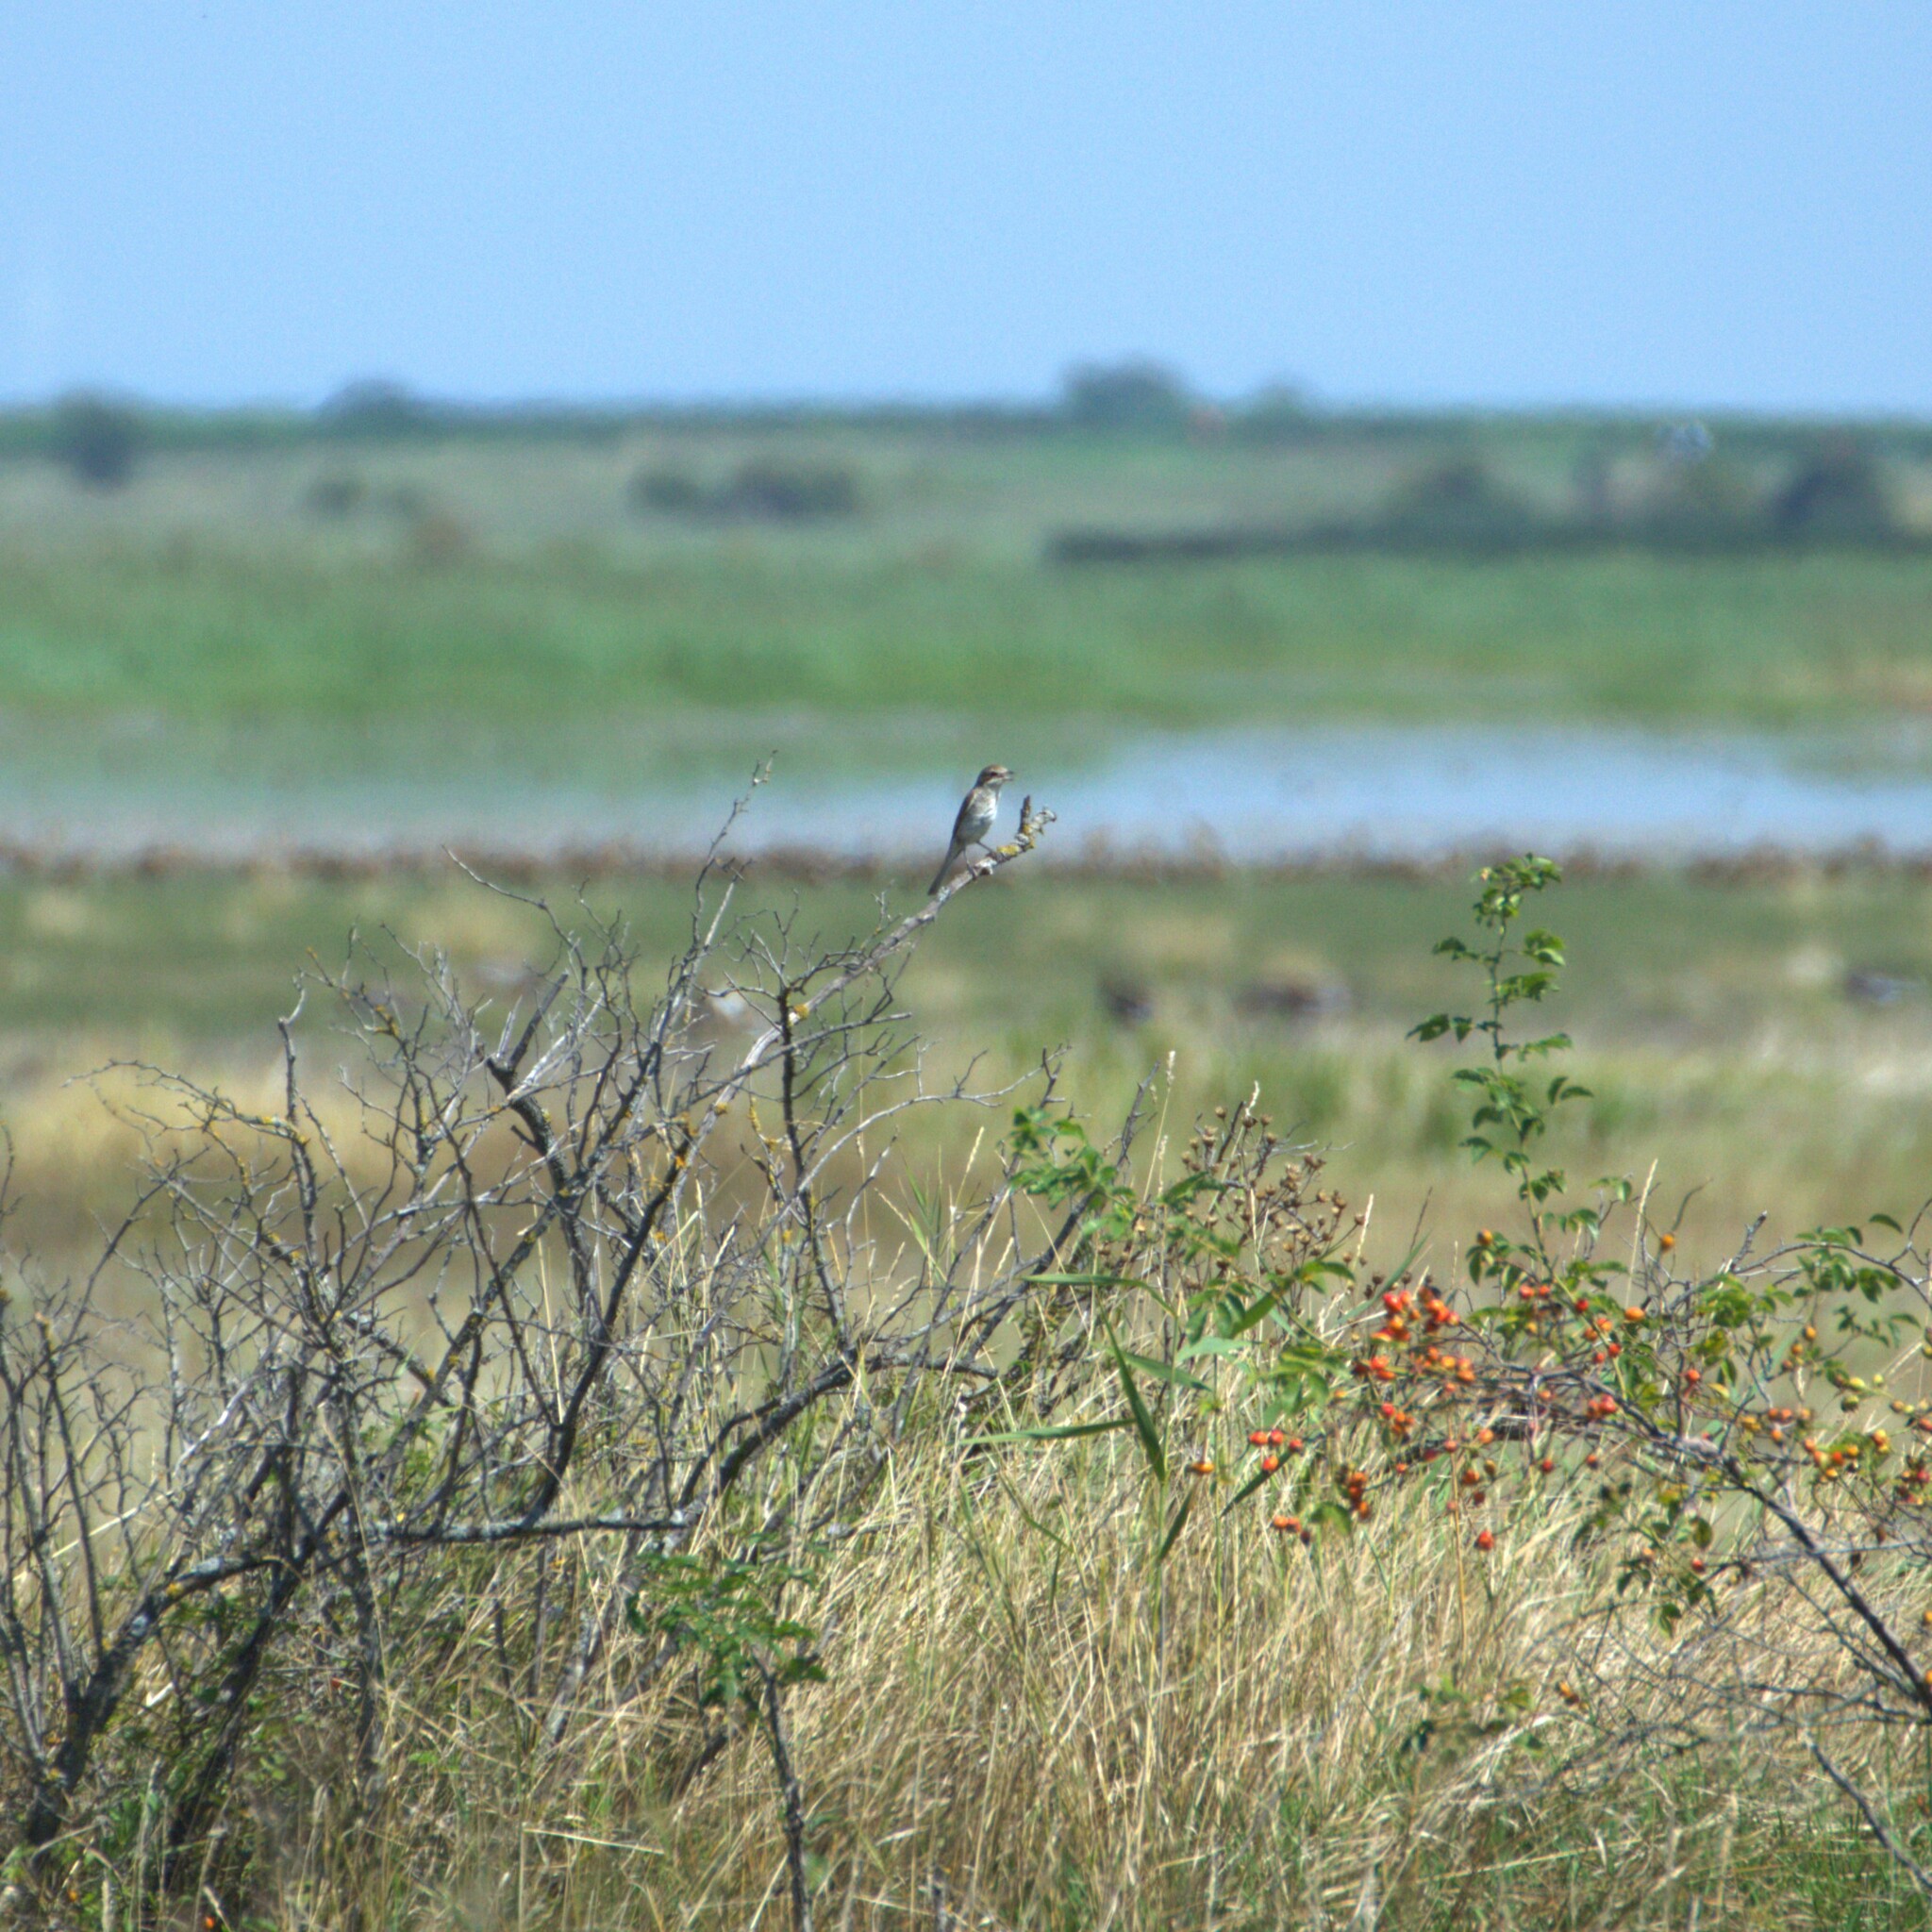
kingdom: Animalia
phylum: Chordata
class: Aves
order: Passeriformes
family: Laniidae
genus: Lanius
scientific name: Lanius collurio
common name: Red-backed shrike
